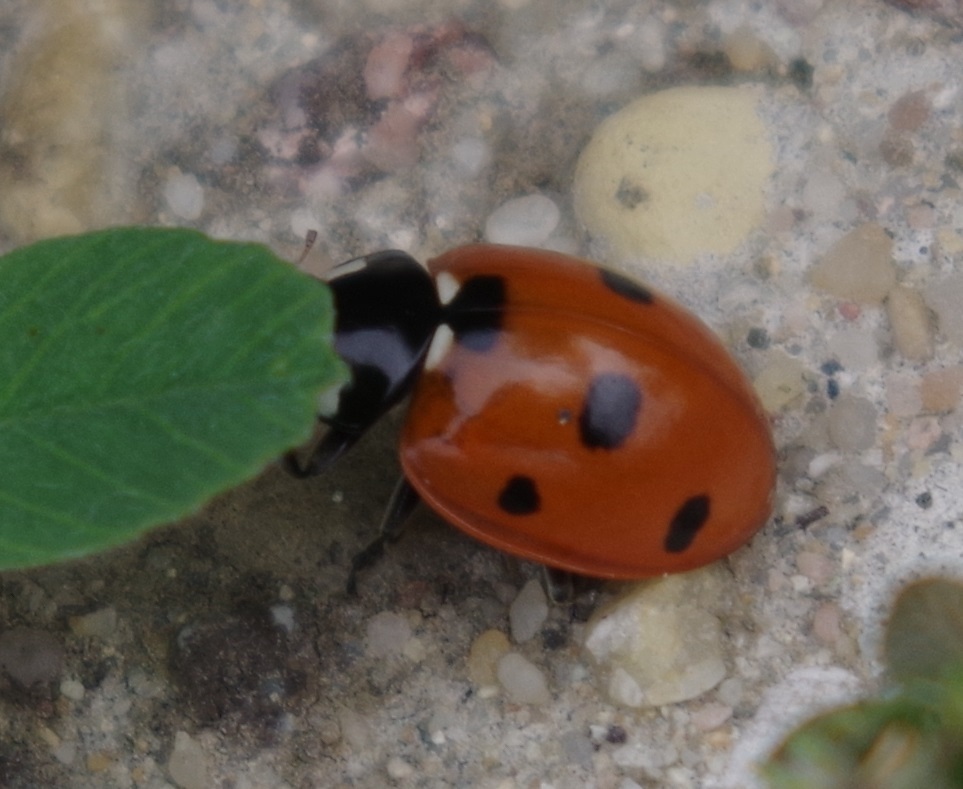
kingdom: Animalia
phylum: Arthropoda
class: Insecta
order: Coleoptera
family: Coccinellidae
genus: Coccinella
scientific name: Coccinella septempunctata
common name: Sevenspotted lady beetle
